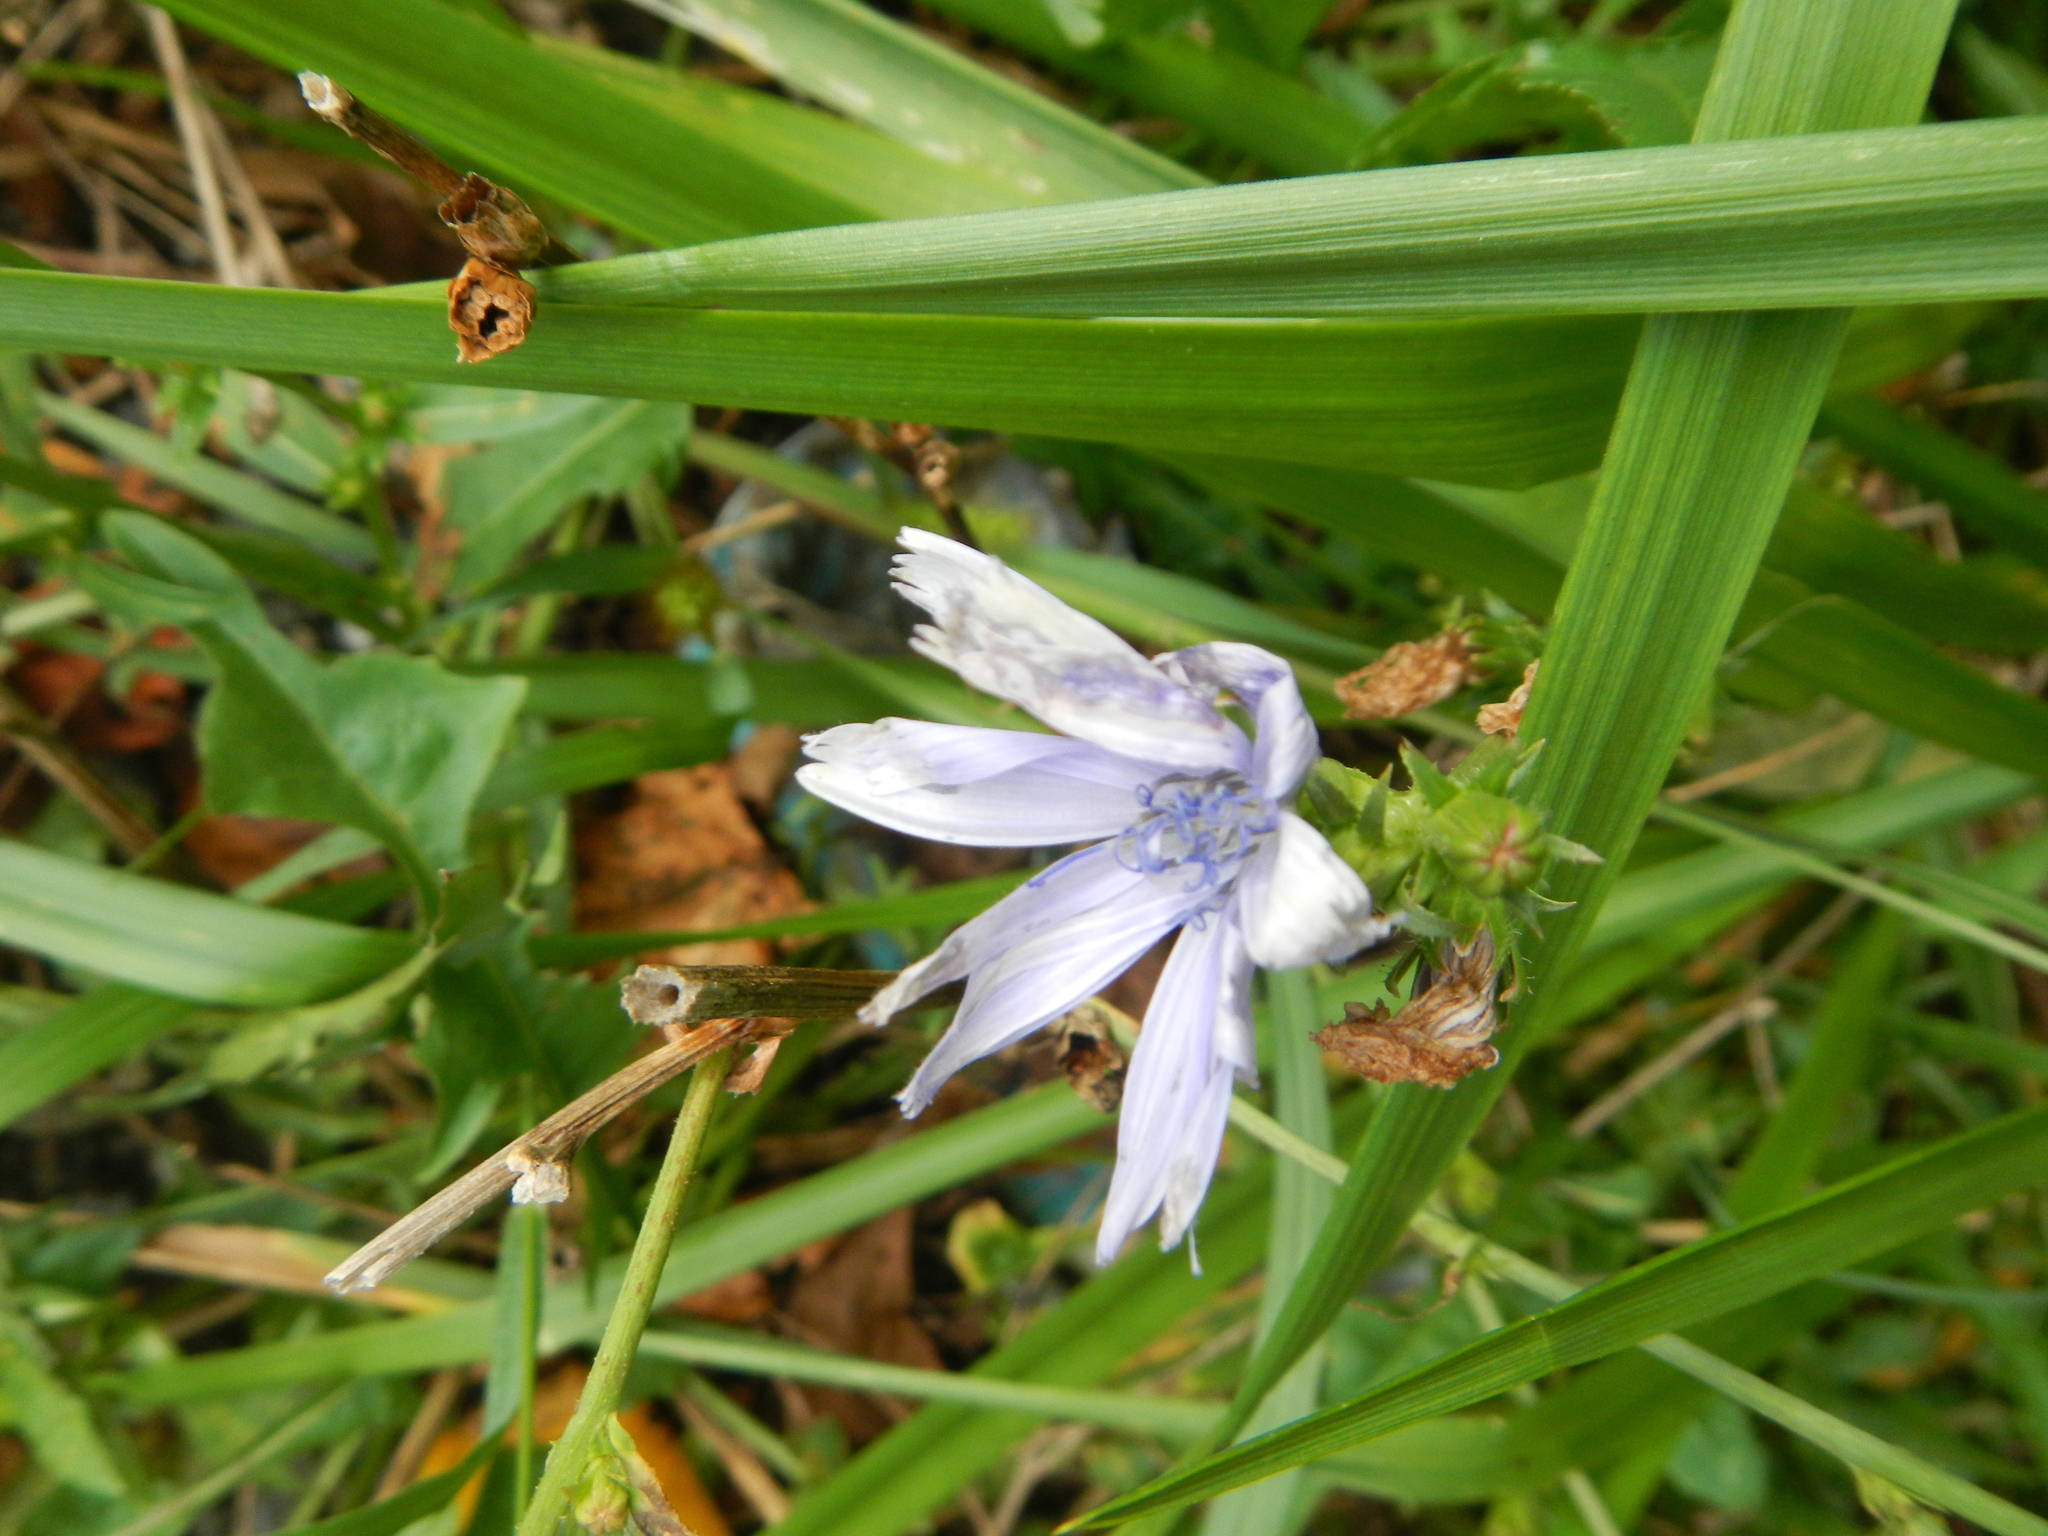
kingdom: Plantae
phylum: Tracheophyta
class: Magnoliopsida
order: Asterales
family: Asteraceae
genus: Cichorium
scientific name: Cichorium intybus
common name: Chicory
